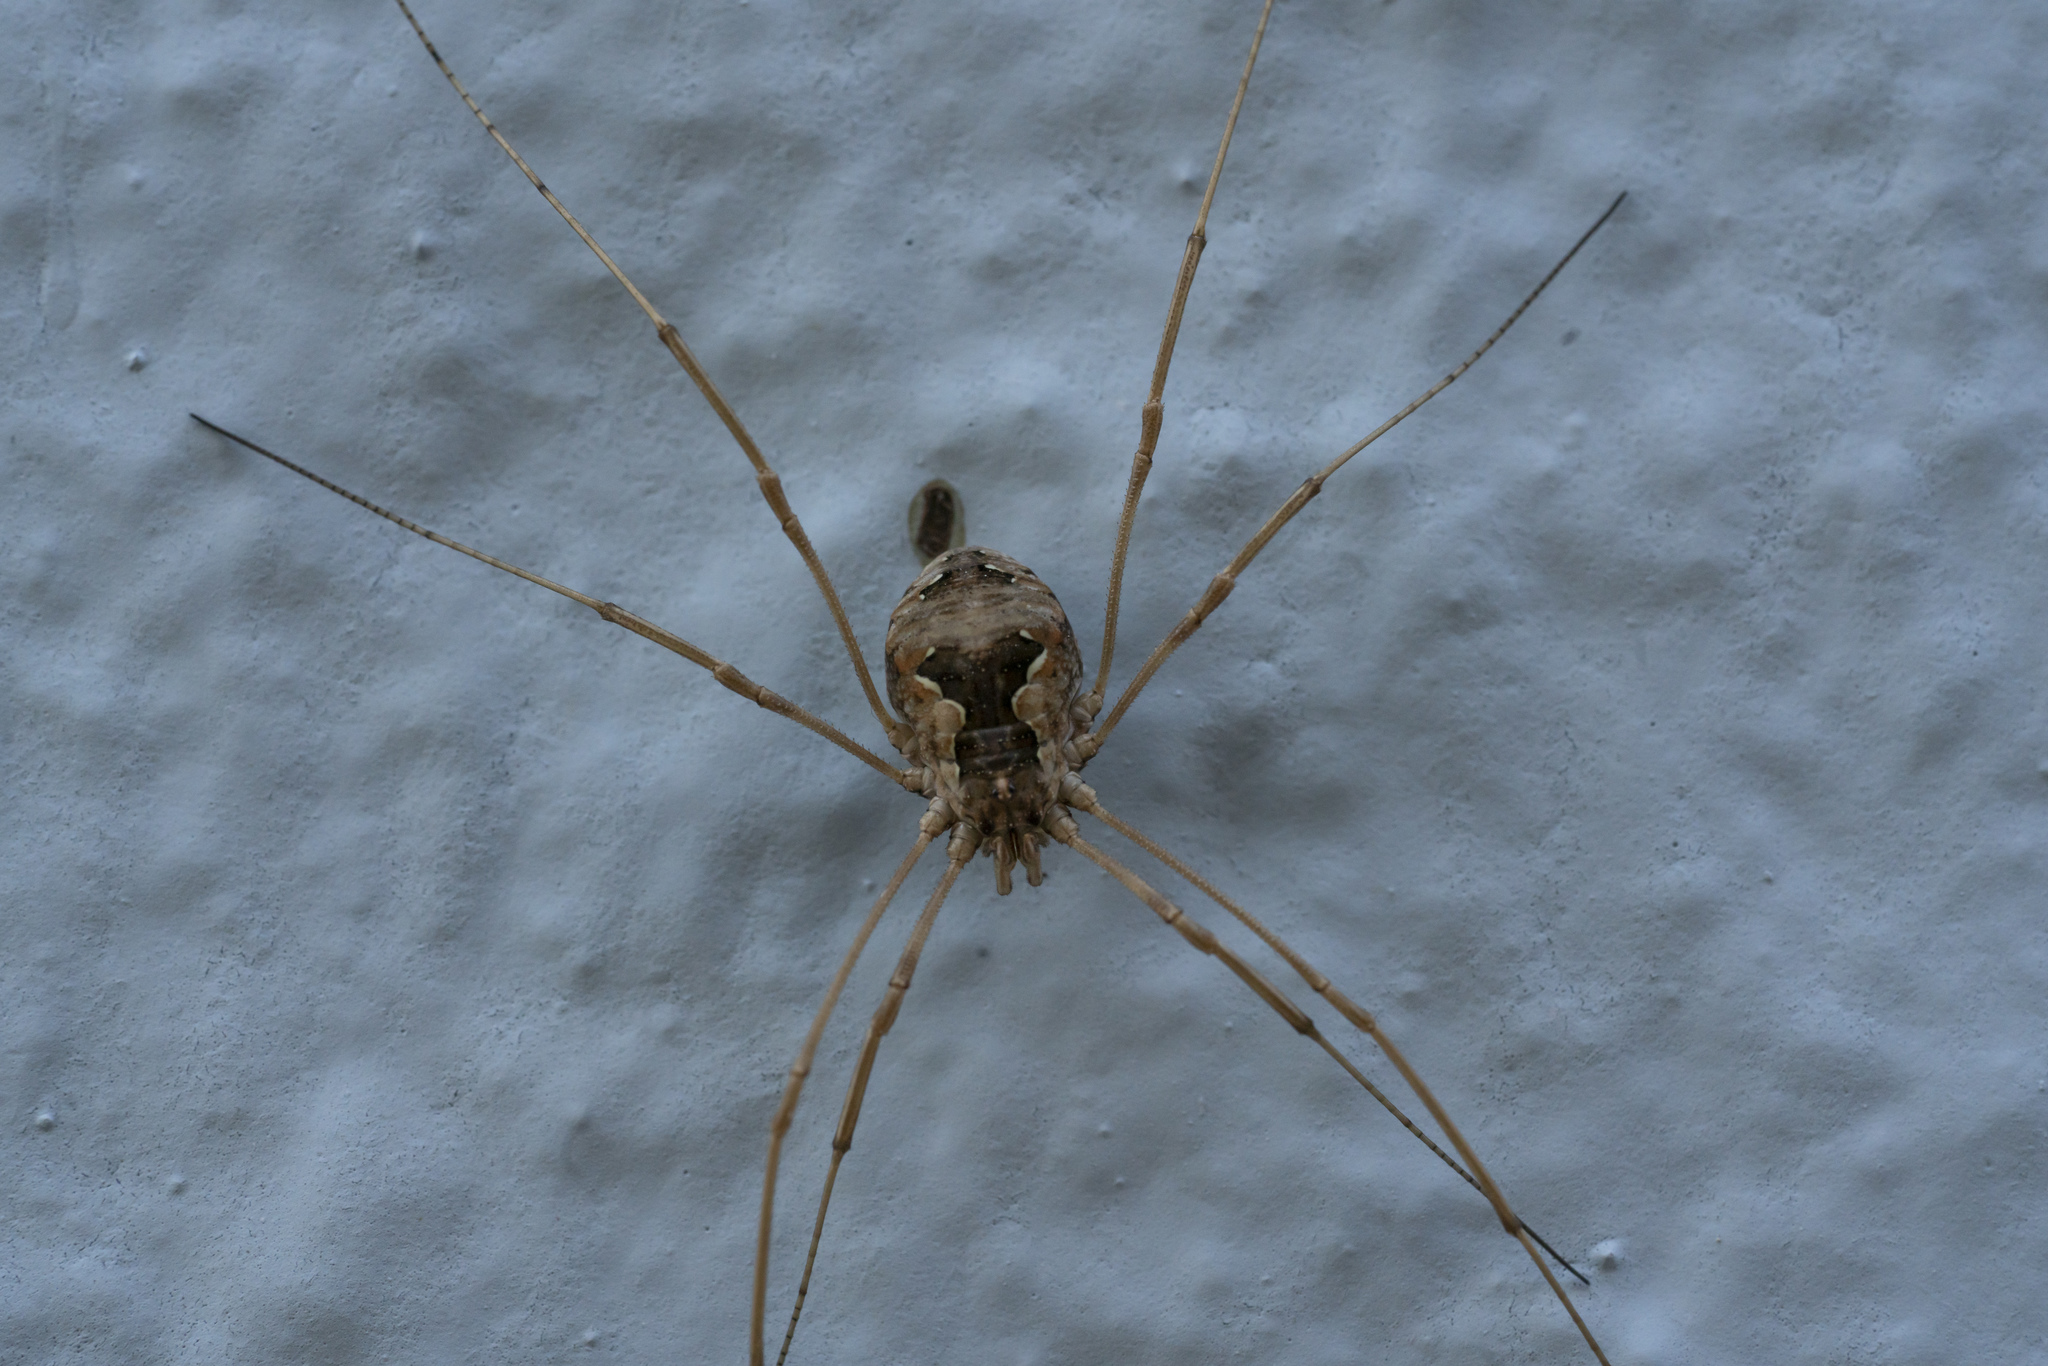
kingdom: Animalia
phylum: Arthropoda
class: Arachnida
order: Opiliones
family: Phalangiidae
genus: Metaphalangium
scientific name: Metaphalangium cirtanum
